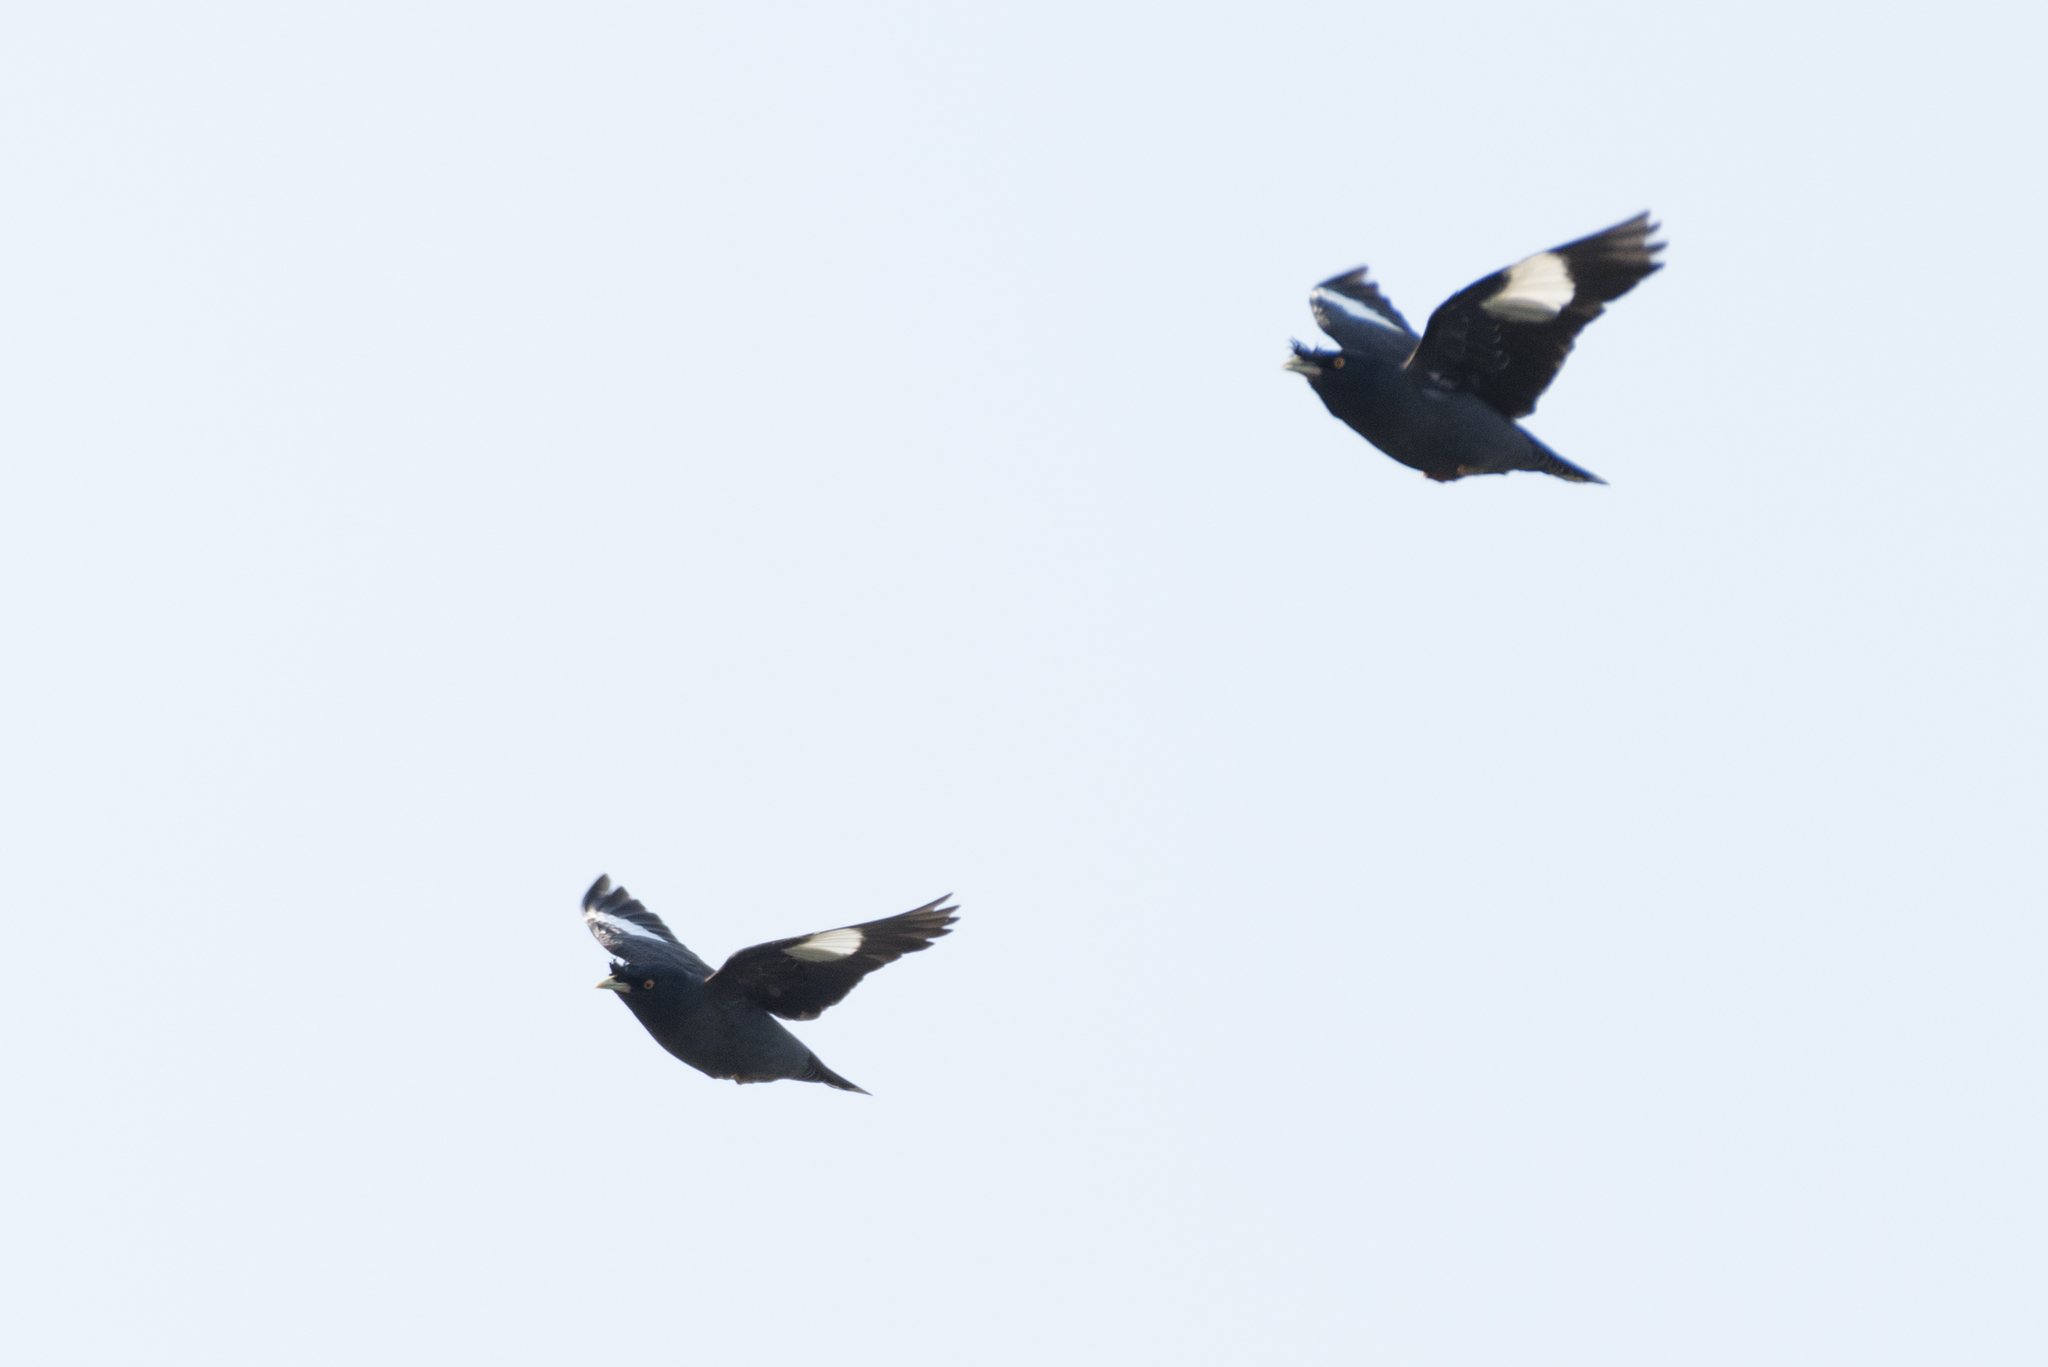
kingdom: Animalia
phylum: Chordata
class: Aves
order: Passeriformes
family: Sturnidae
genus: Acridotheres
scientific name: Acridotheres cristatellus
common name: Crested myna
